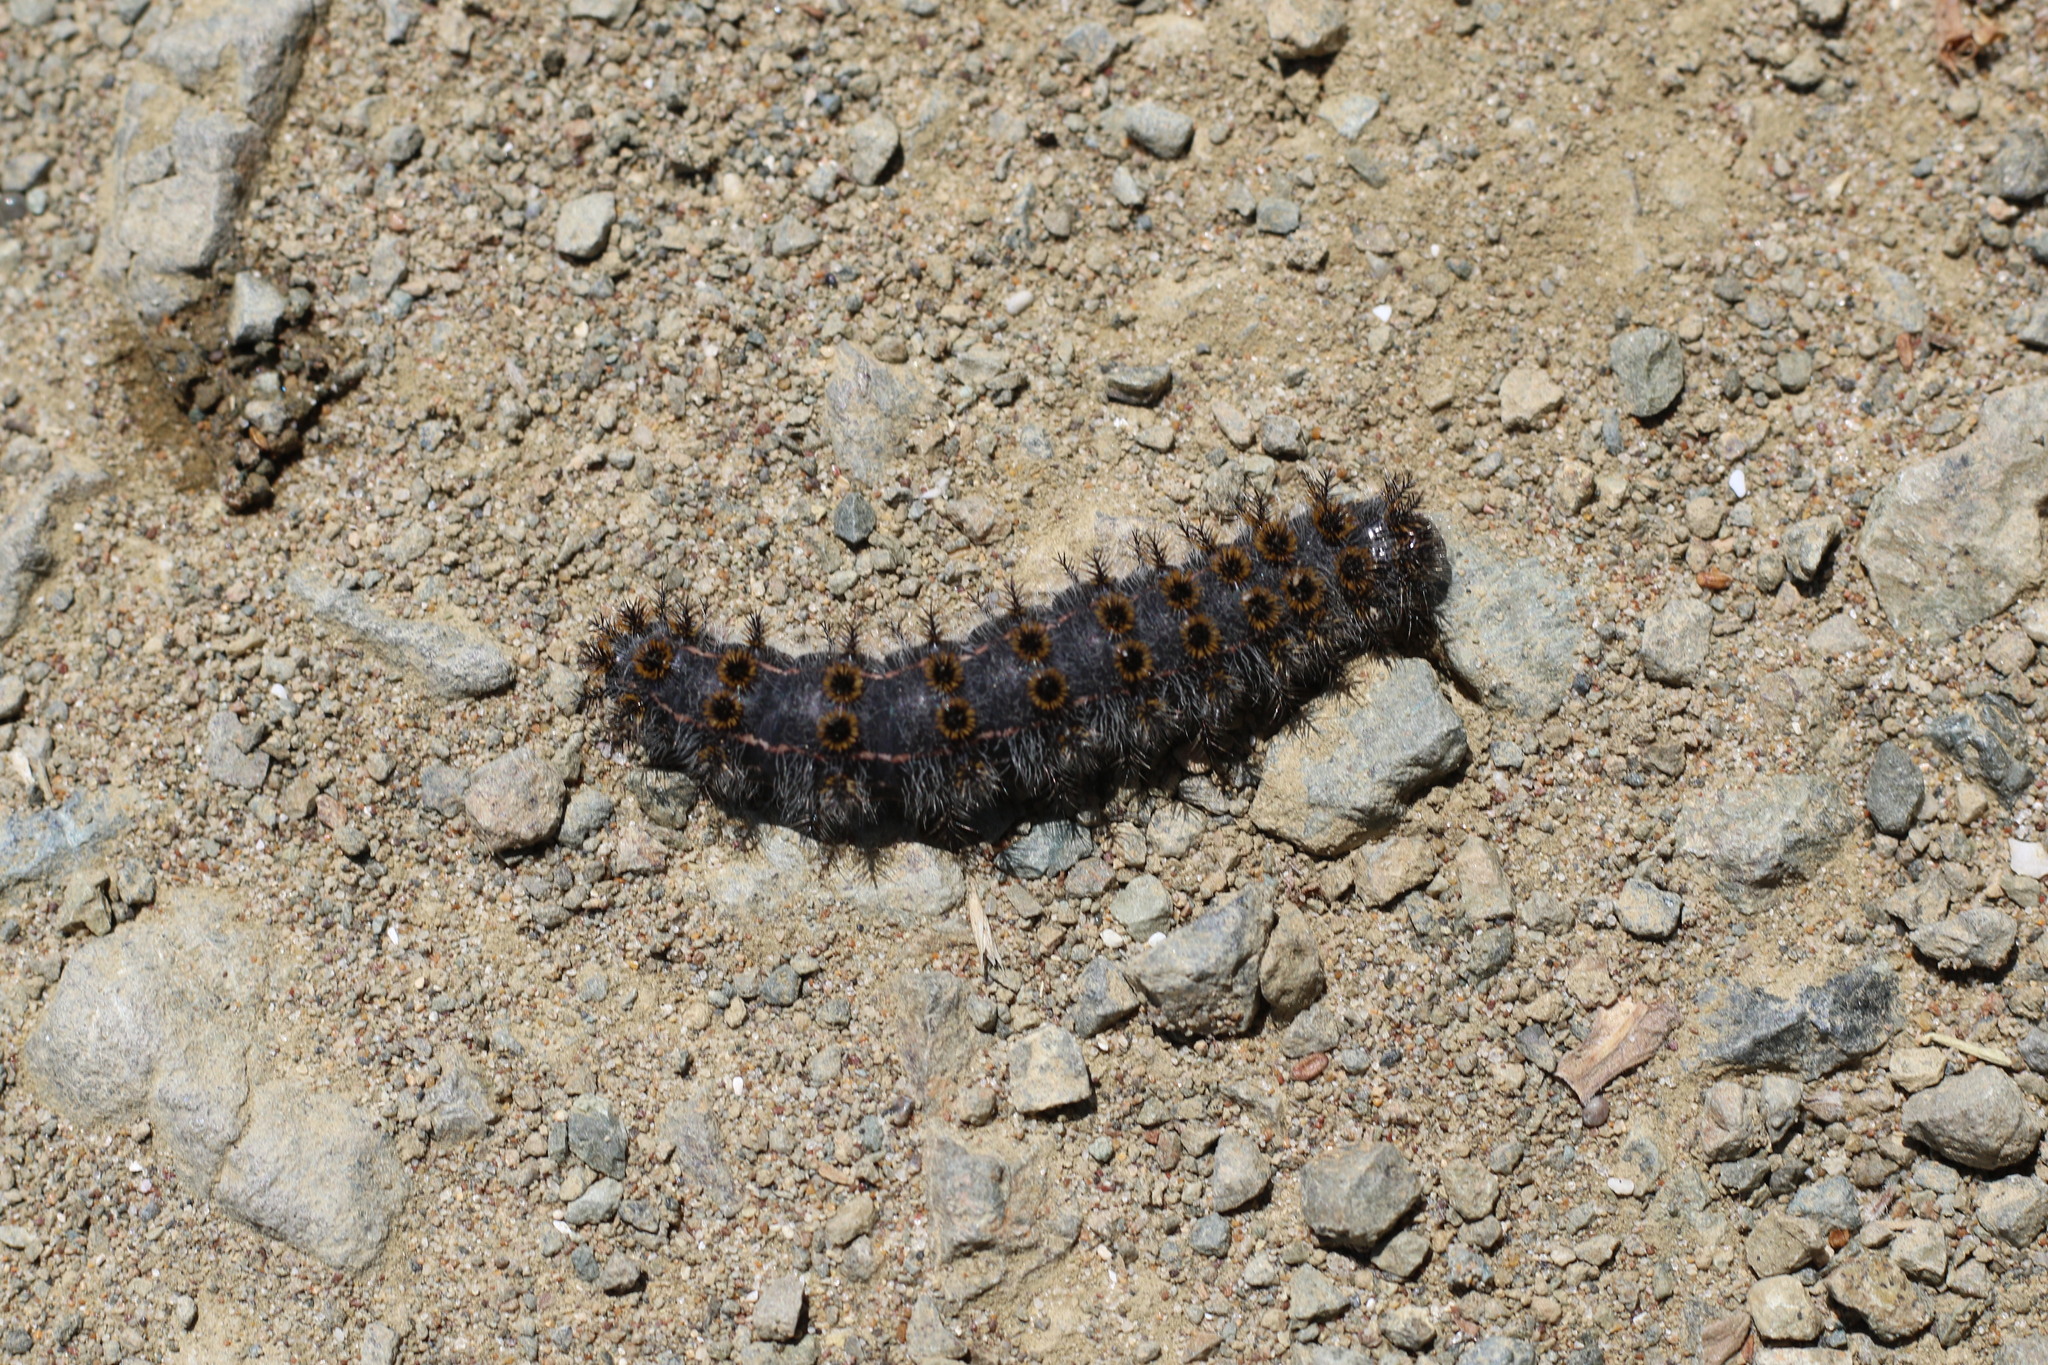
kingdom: Animalia
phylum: Arthropoda
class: Insecta
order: Lepidoptera
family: Saturniidae
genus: Hemileuca
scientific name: Hemileuca eglanterina
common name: Western sheepmoth
